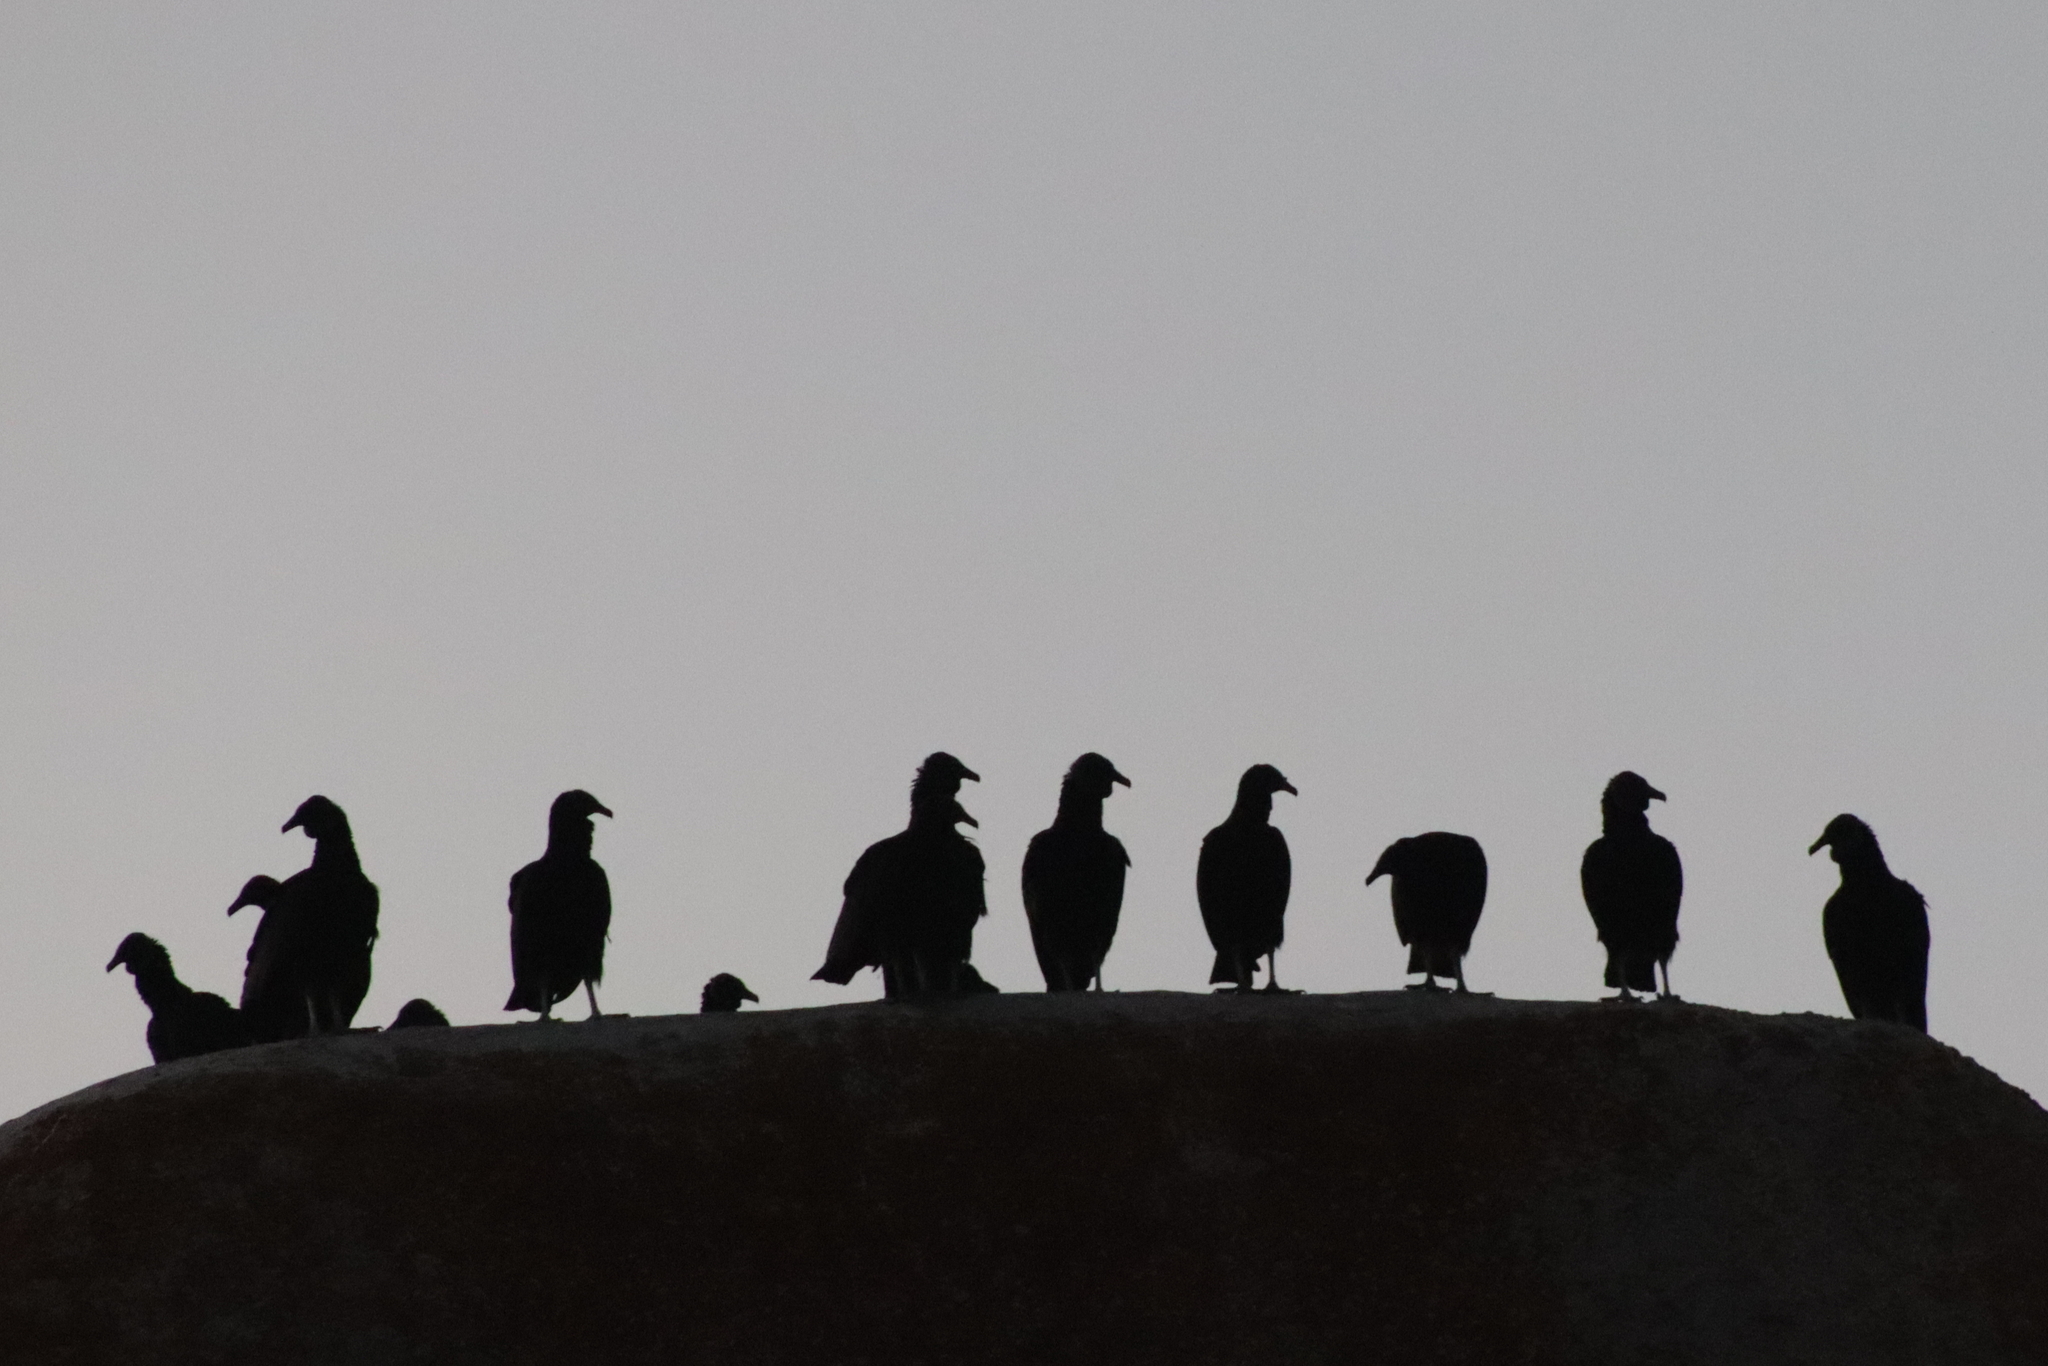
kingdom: Animalia
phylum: Chordata
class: Aves
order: Accipitriformes
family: Cathartidae
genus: Coragyps
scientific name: Coragyps atratus
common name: Black vulture
